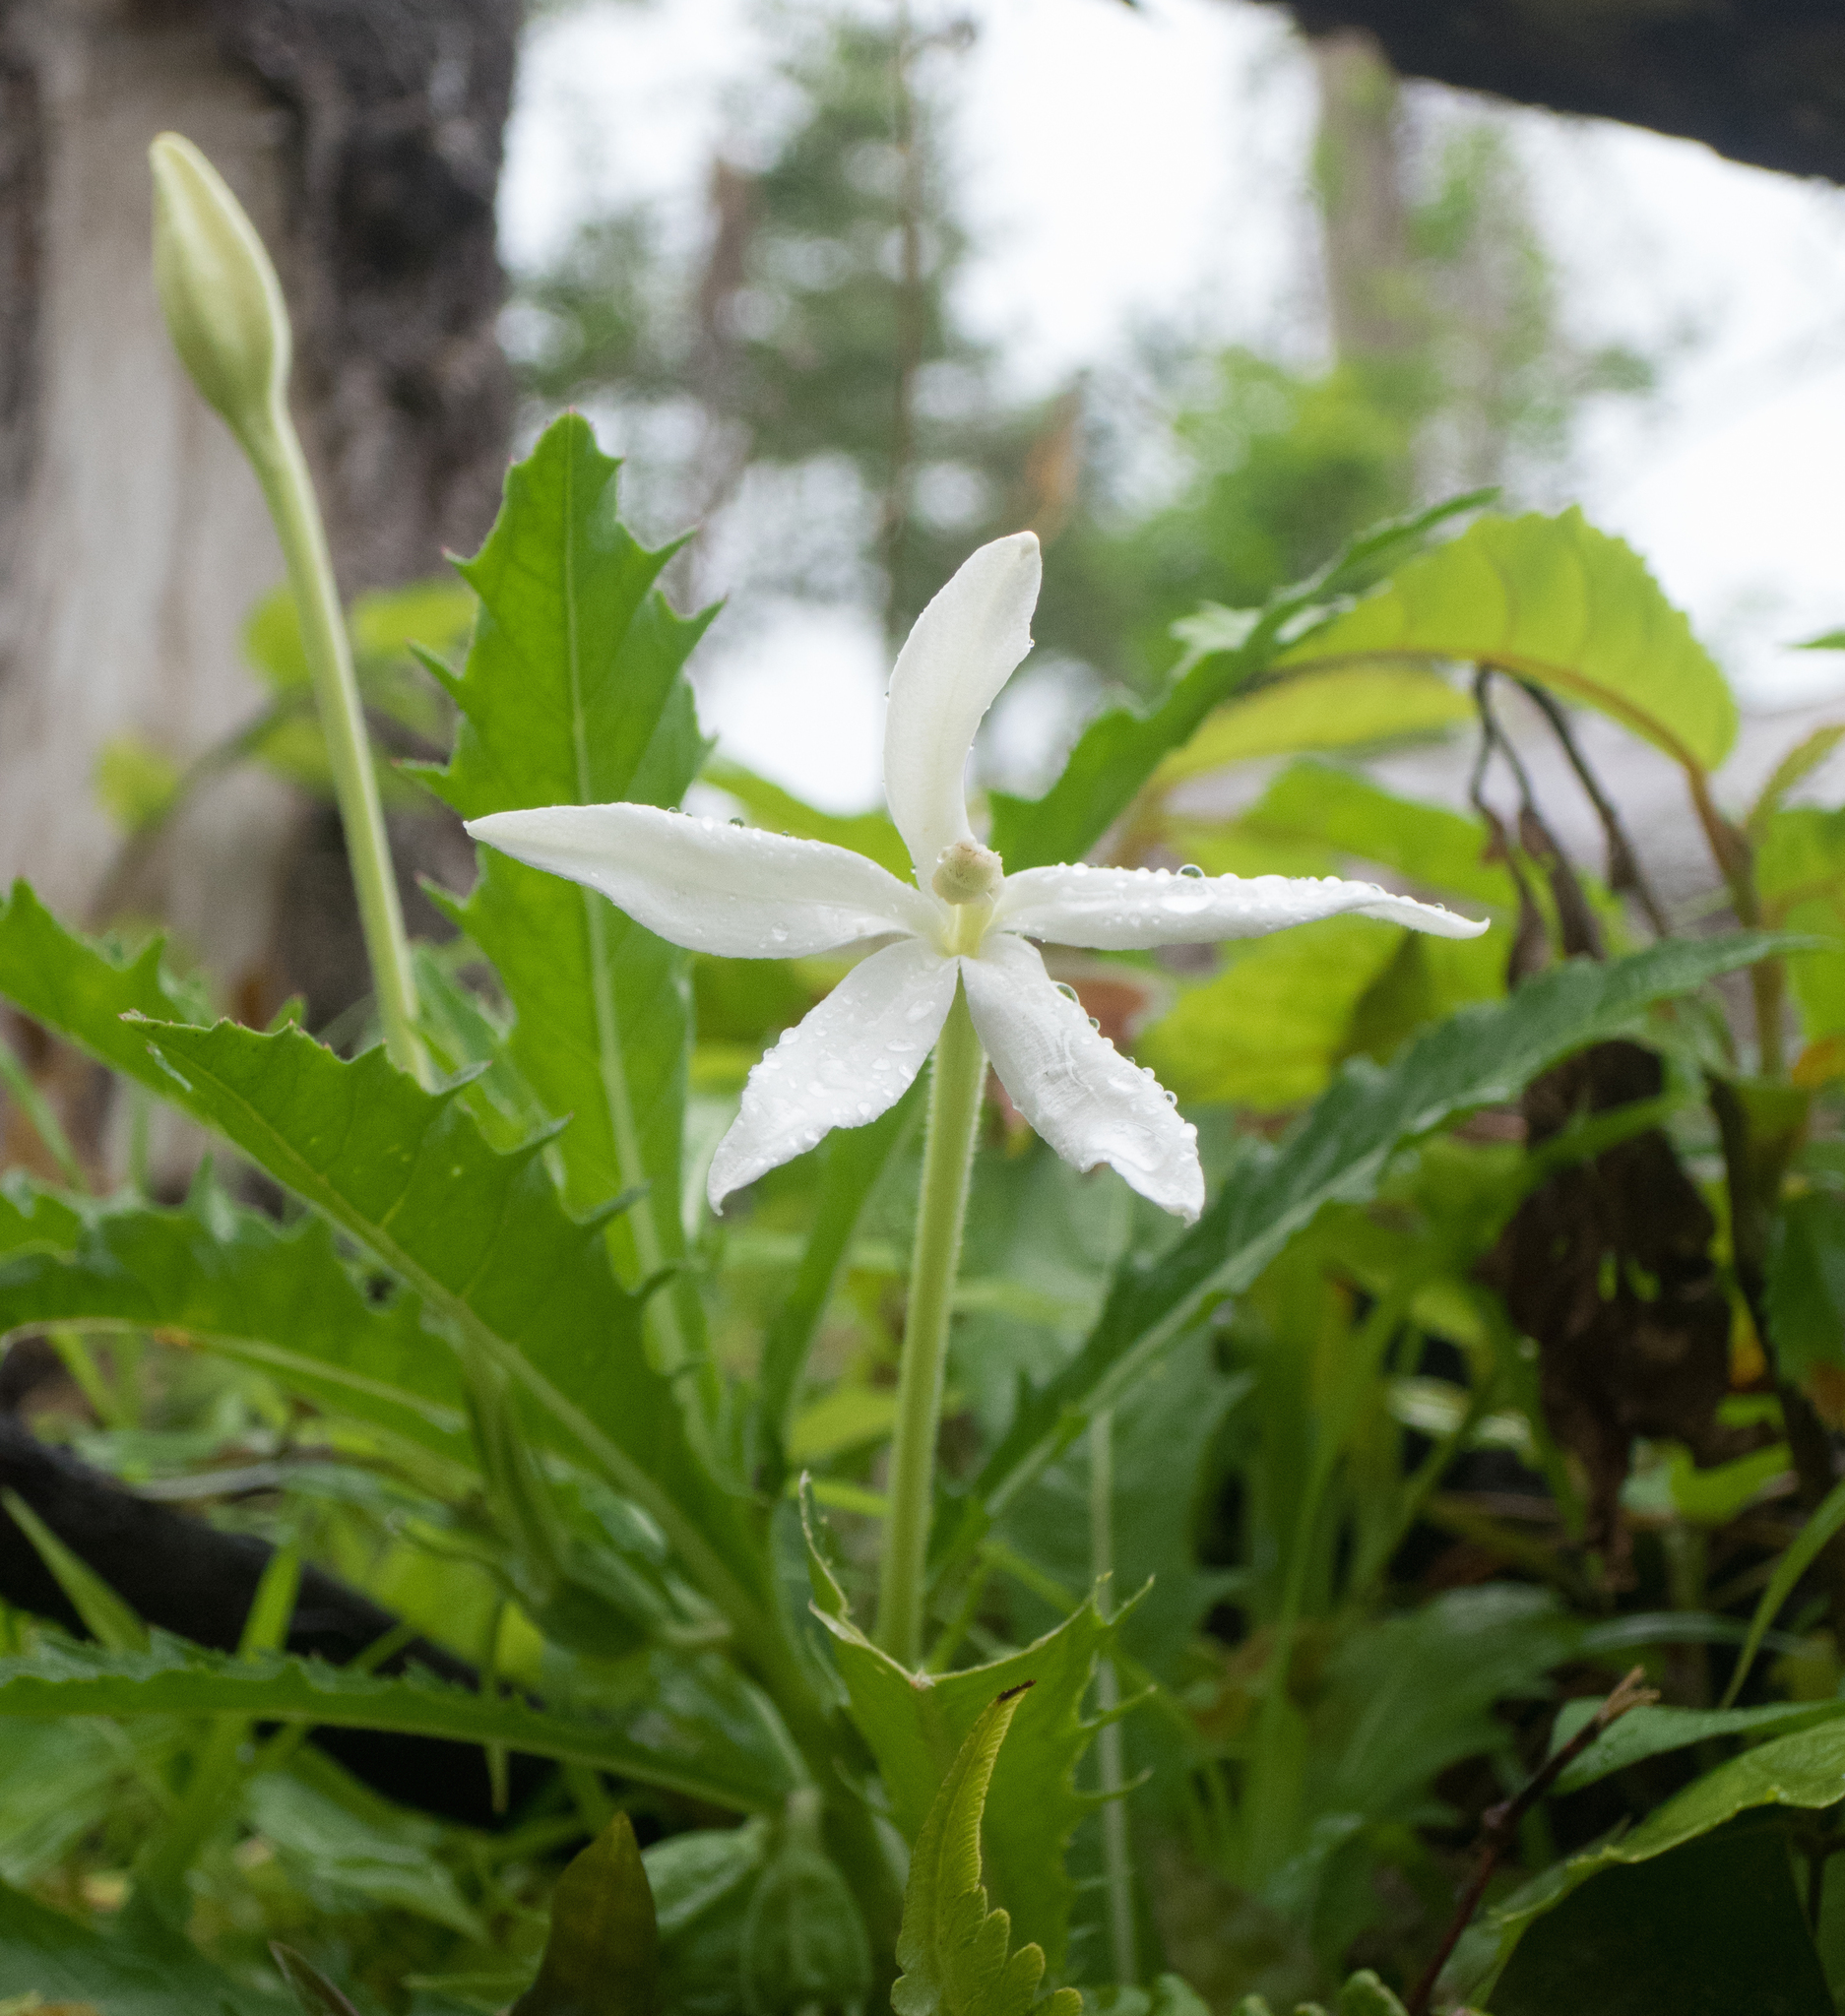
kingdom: Plantae
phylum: Tracheophyta
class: Magnoliopsida
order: Asterales
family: Campanulaceae
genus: Hippobroma
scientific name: Hippobroma longiflora
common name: Madamfate
